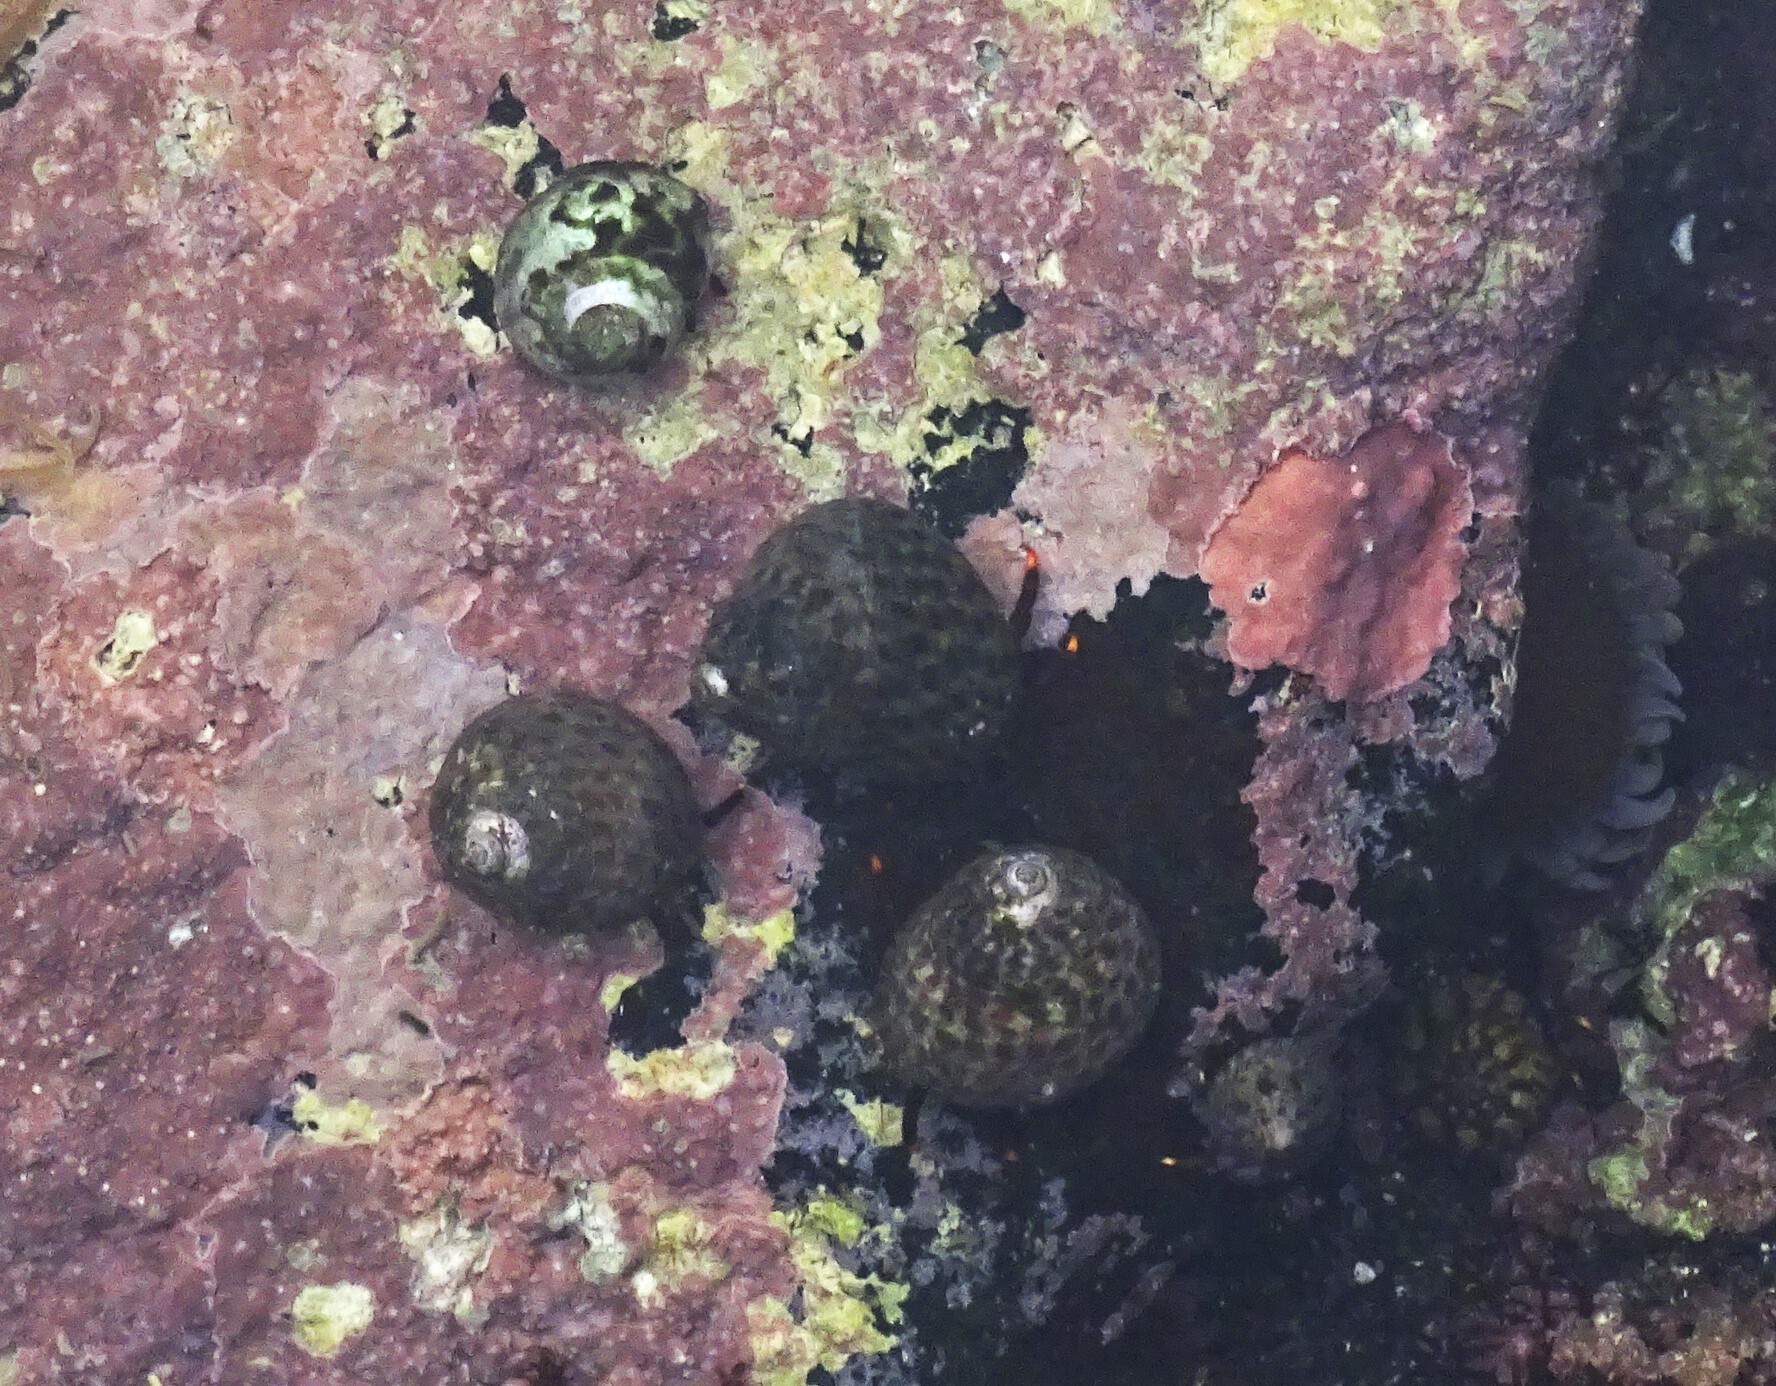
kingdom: Animalia
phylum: Mollusca
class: Gastropoda
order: Trochida
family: Trochidae
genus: Phorcus
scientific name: Phorcus sauciatus
